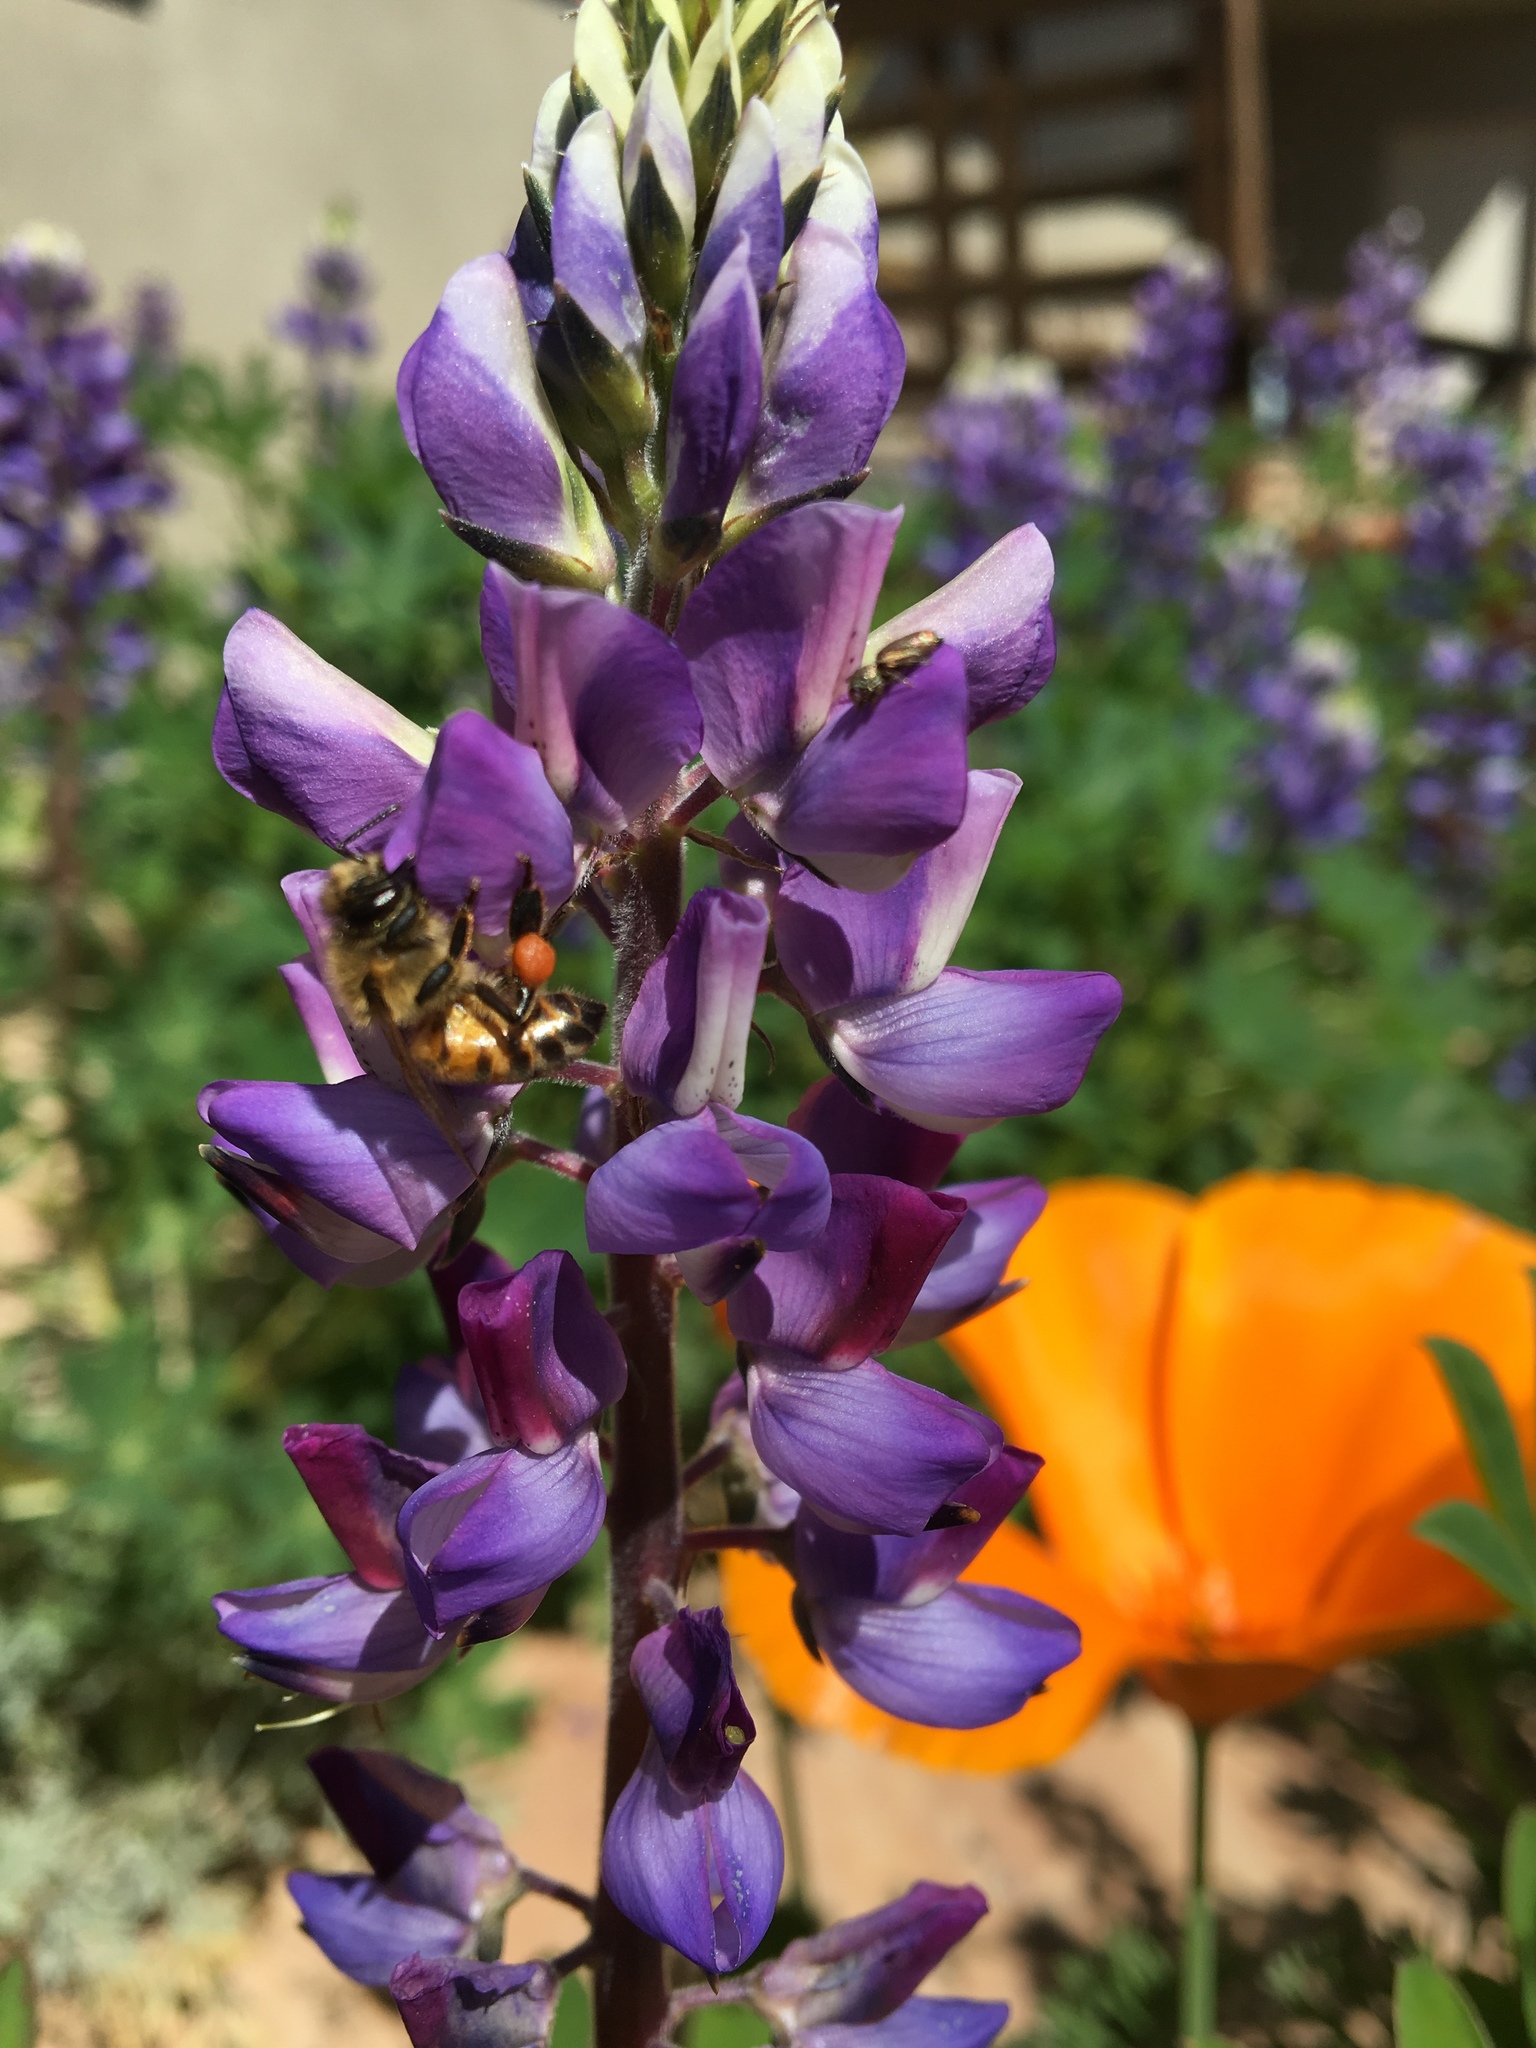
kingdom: Animalia
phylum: Arthropoda
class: Insecta
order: Hymenoptera
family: Apidae
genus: Apis
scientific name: Apis mellifera
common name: Honey bee
